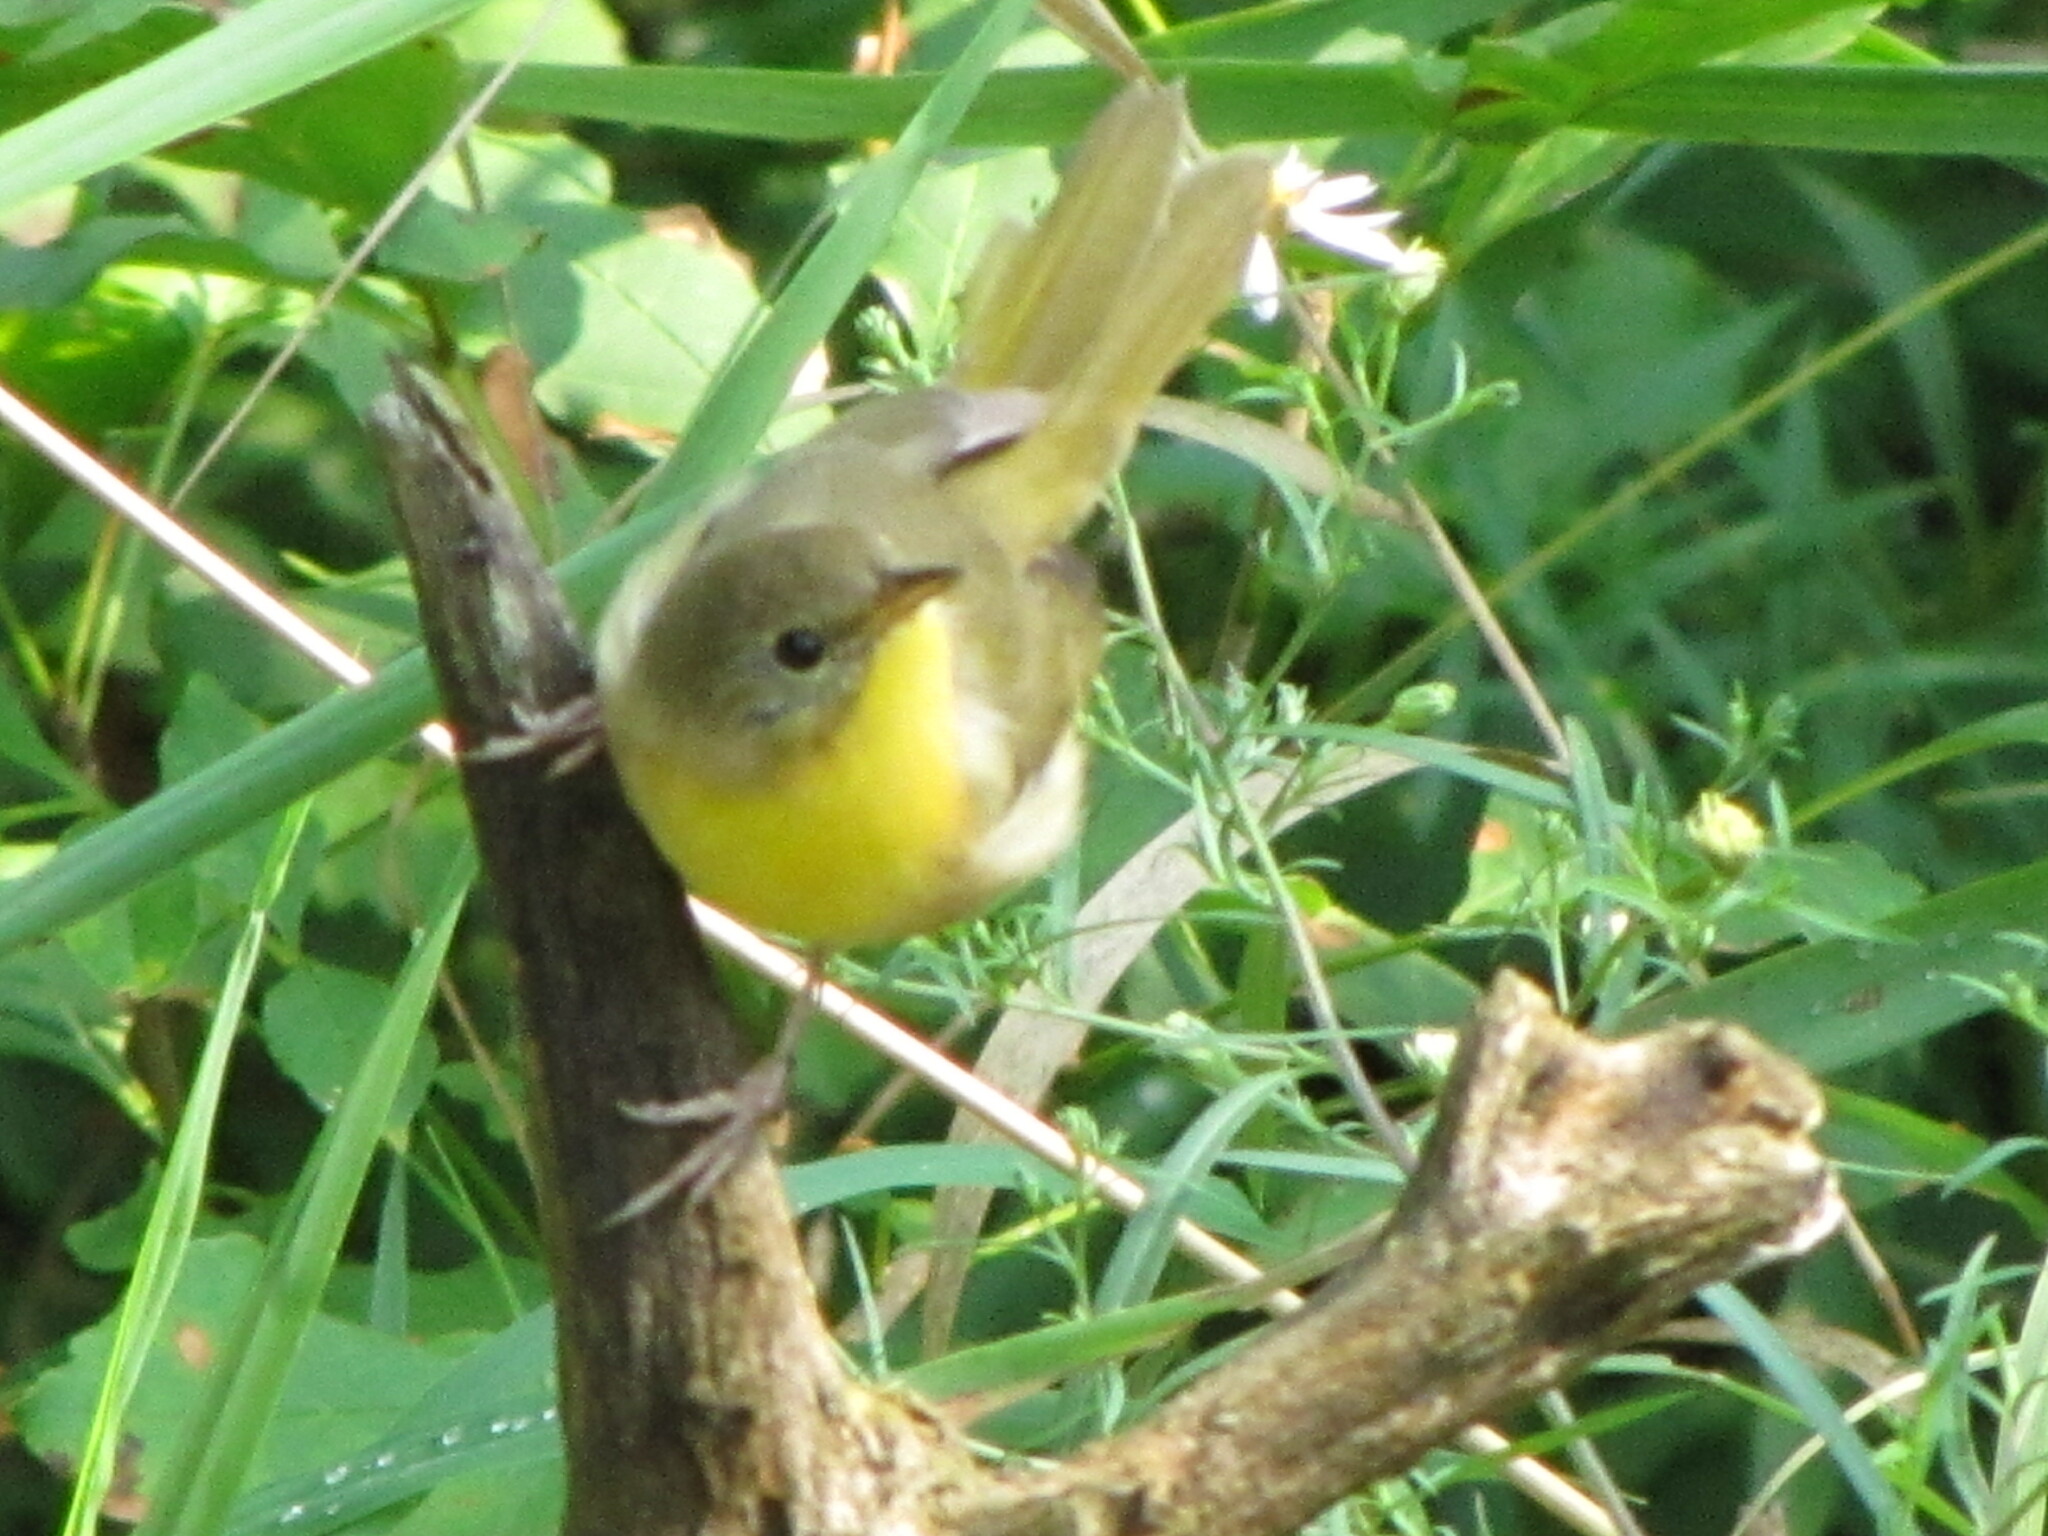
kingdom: Animalia
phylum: Chordata
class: Aves
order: Passeriformes
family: Parulidae
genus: Geothlypis
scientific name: Geothlypis trichas
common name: Common yellowthroat
